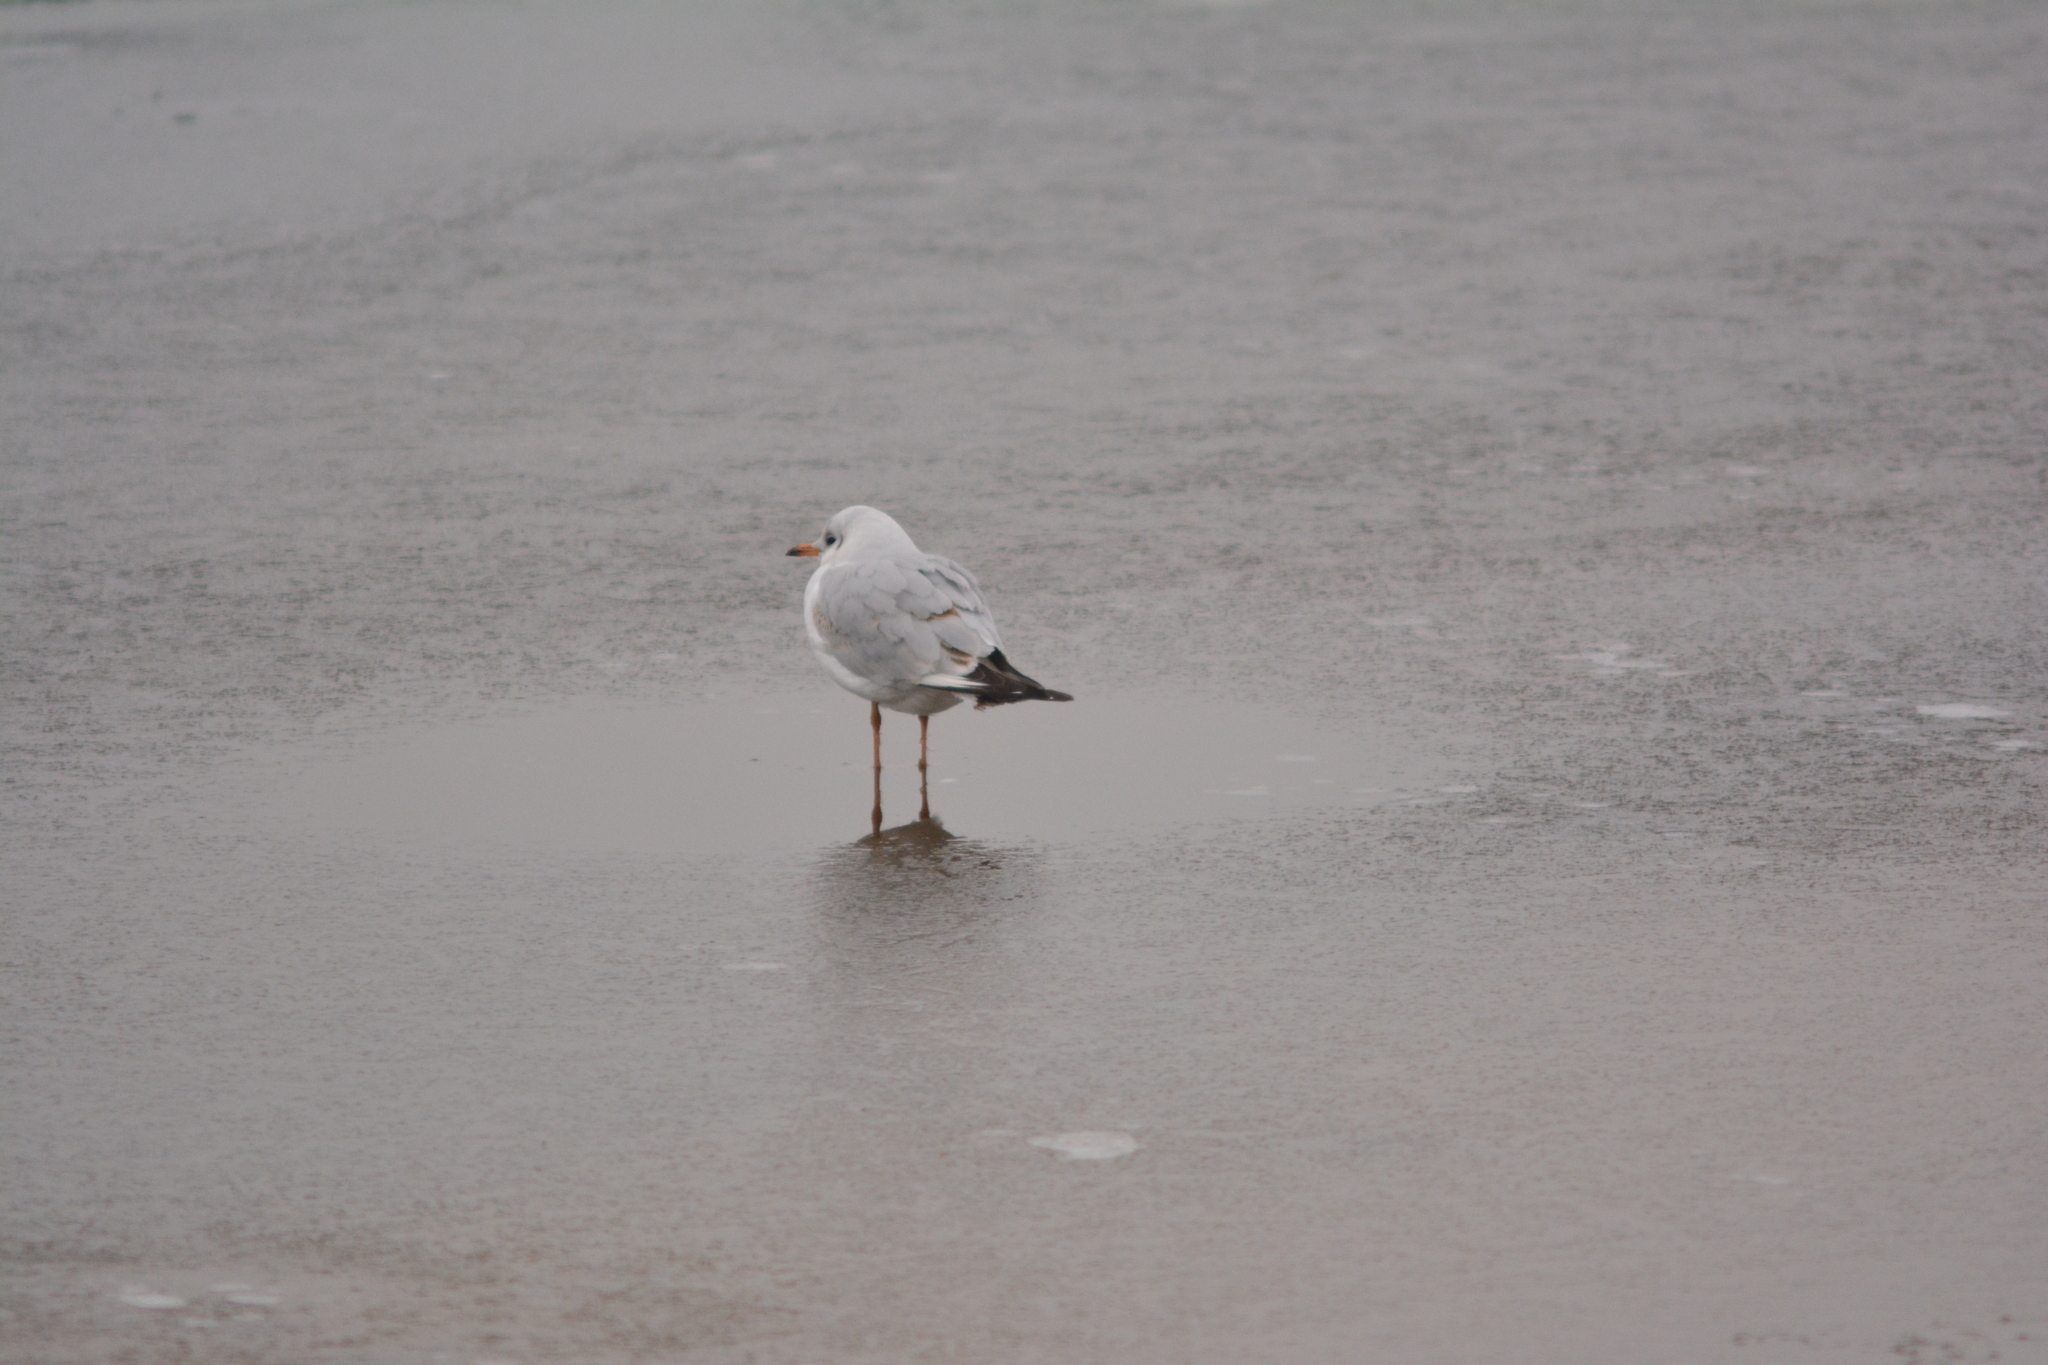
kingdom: Animalia
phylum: Chordata
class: Aves
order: Charadriiformes
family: Laridae
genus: Chroicocephalus
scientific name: Chroicocephalus ridibundus
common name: Black-headed gull
